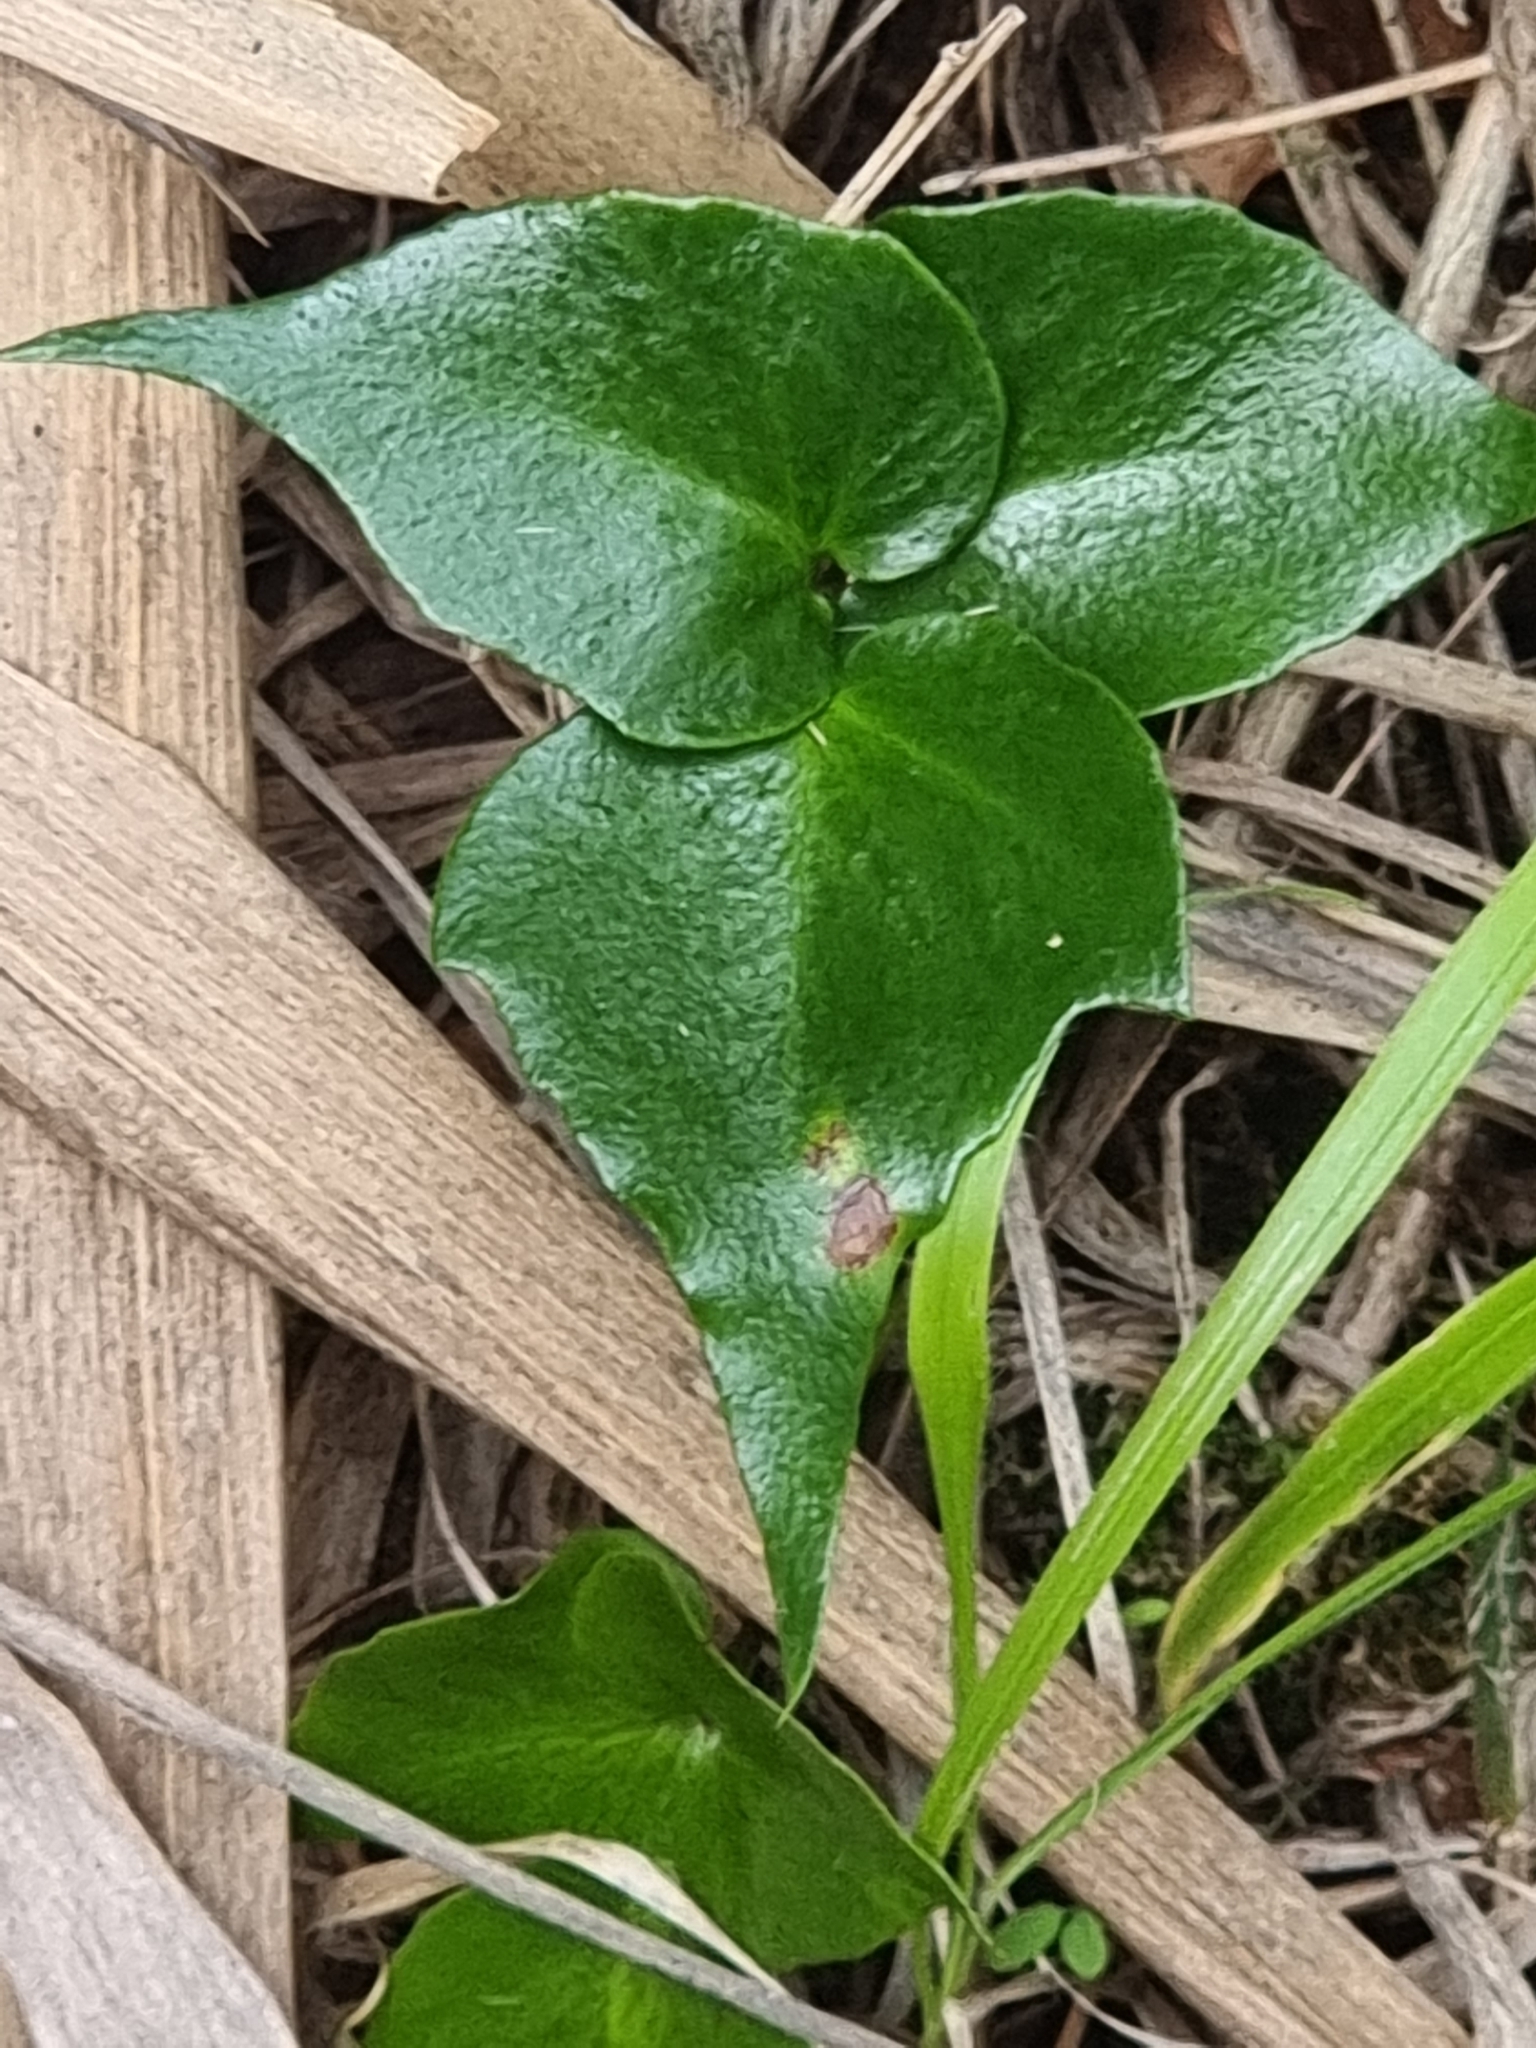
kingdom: Plantae
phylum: Tracheophyta
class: Polypodiopsida
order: Polypodiales
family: Dryopteridaceae
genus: Cyrtomium
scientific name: Cyrtomium falcatum
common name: House holly-fern
